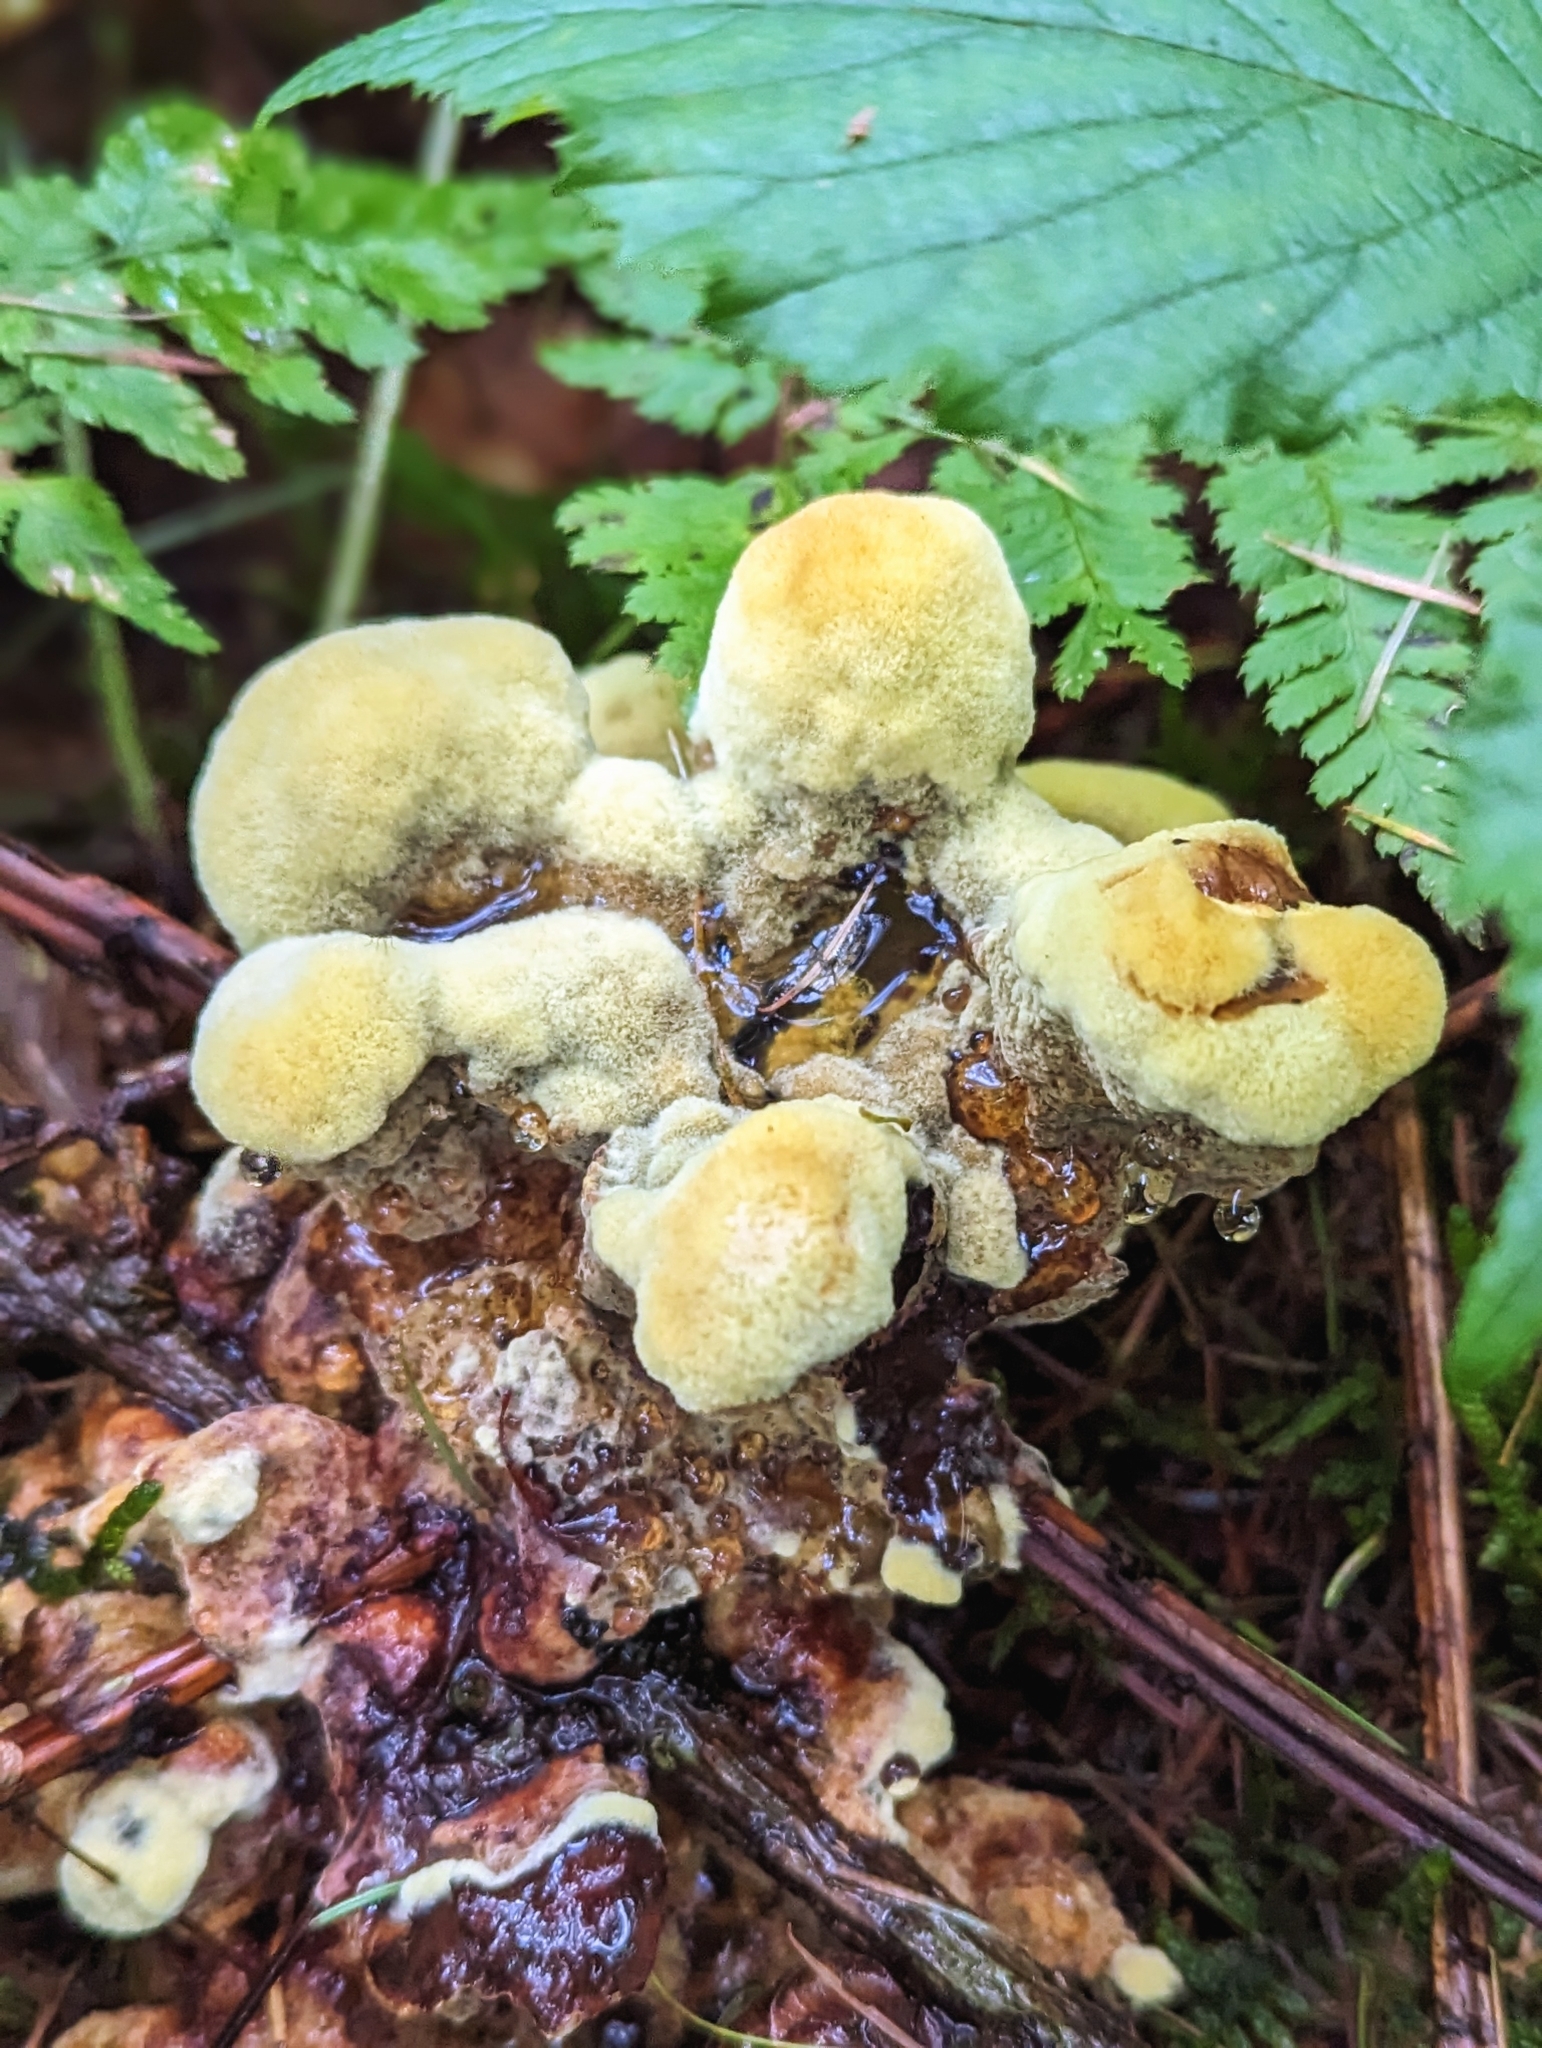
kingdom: Fungi
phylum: Basidiomycota
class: Agaricomycetes
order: Polyporales
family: Laetiporaceae
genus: Phaeolus
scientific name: Phaeolus schweinitzii
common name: Dyer's mazegill
